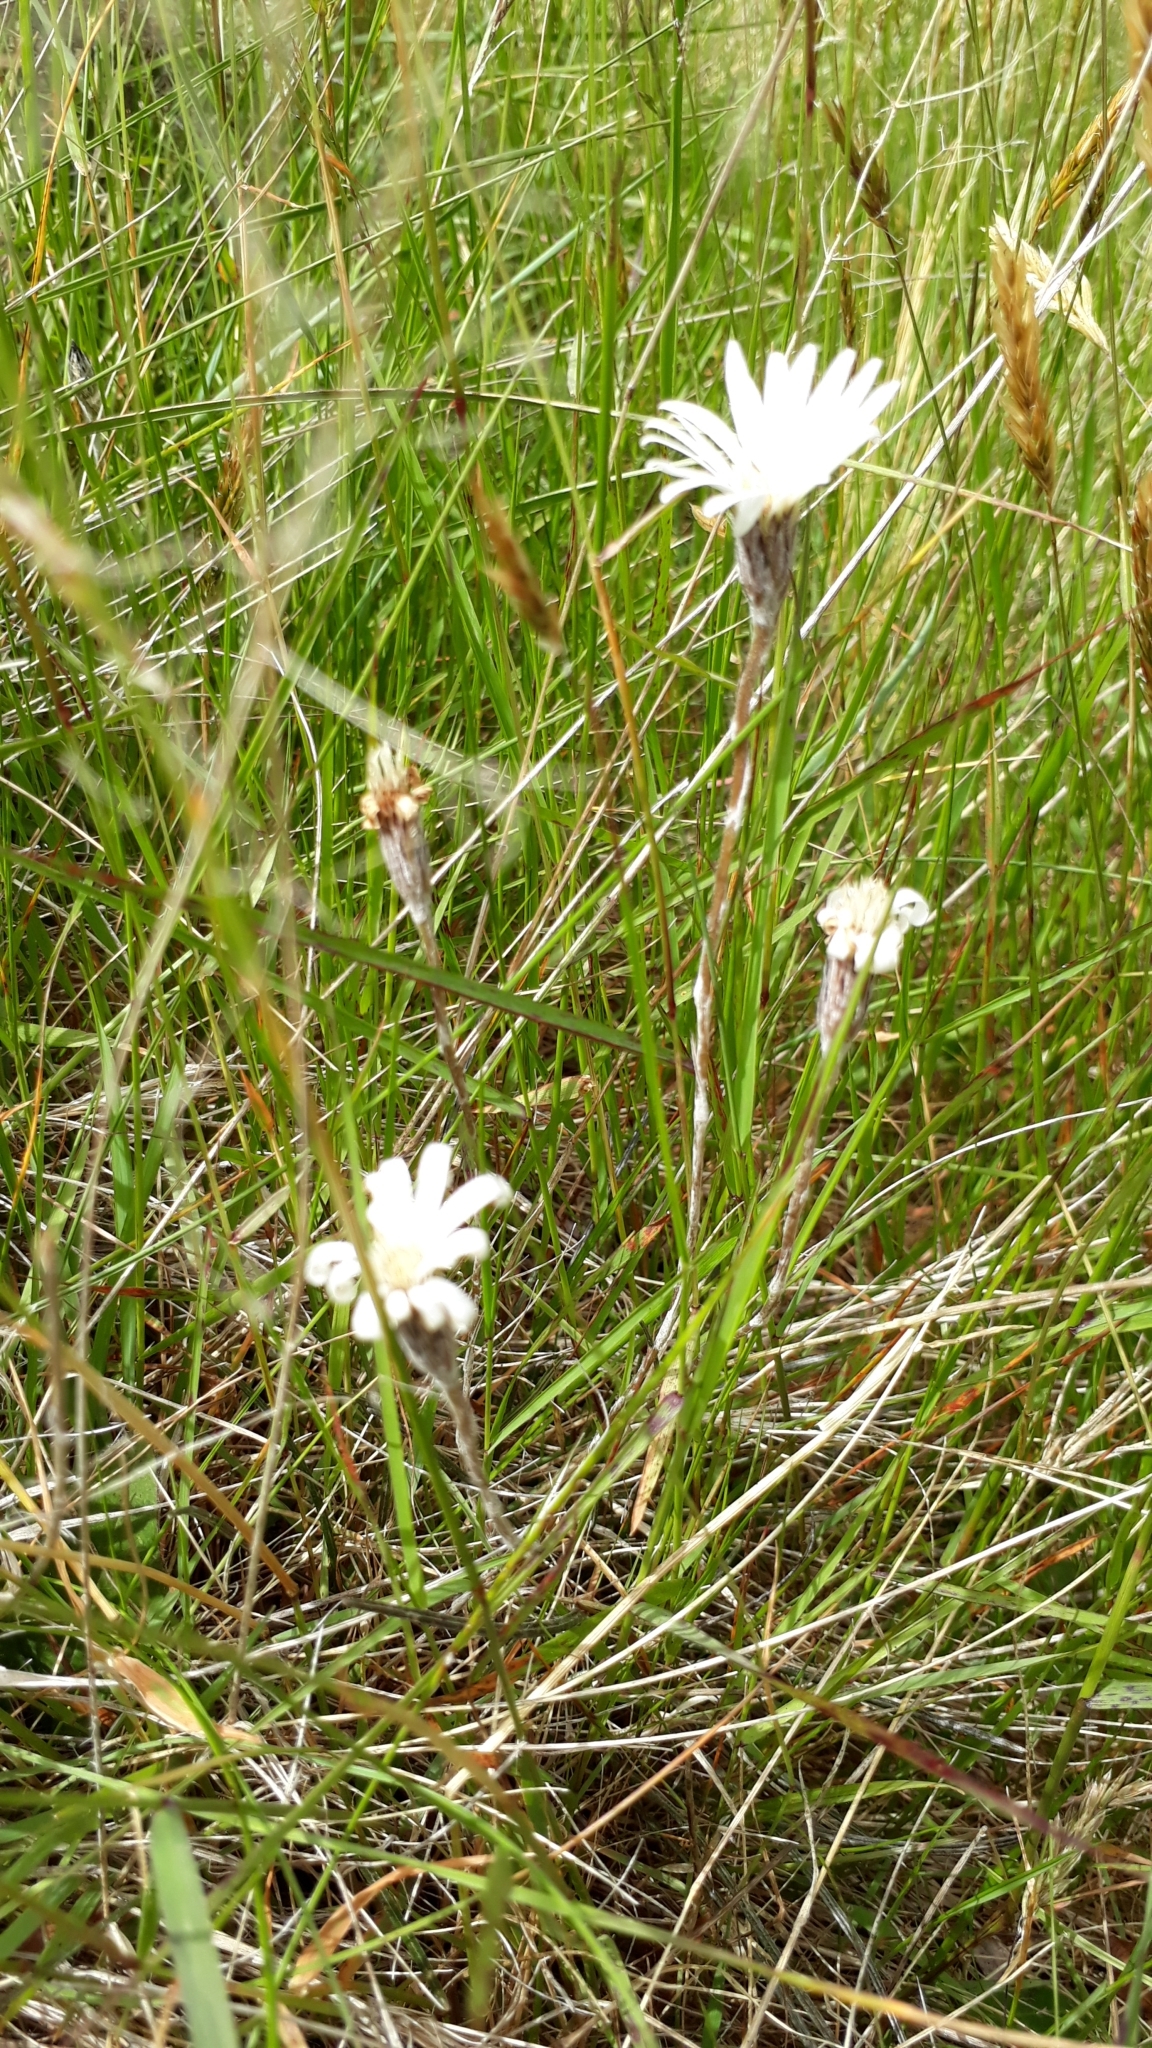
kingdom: Plantae
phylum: Tracheophyta
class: Magnoliopsida
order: Asterales
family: Asteraceae
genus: Celmisia
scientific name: Celmisia gracilenta
